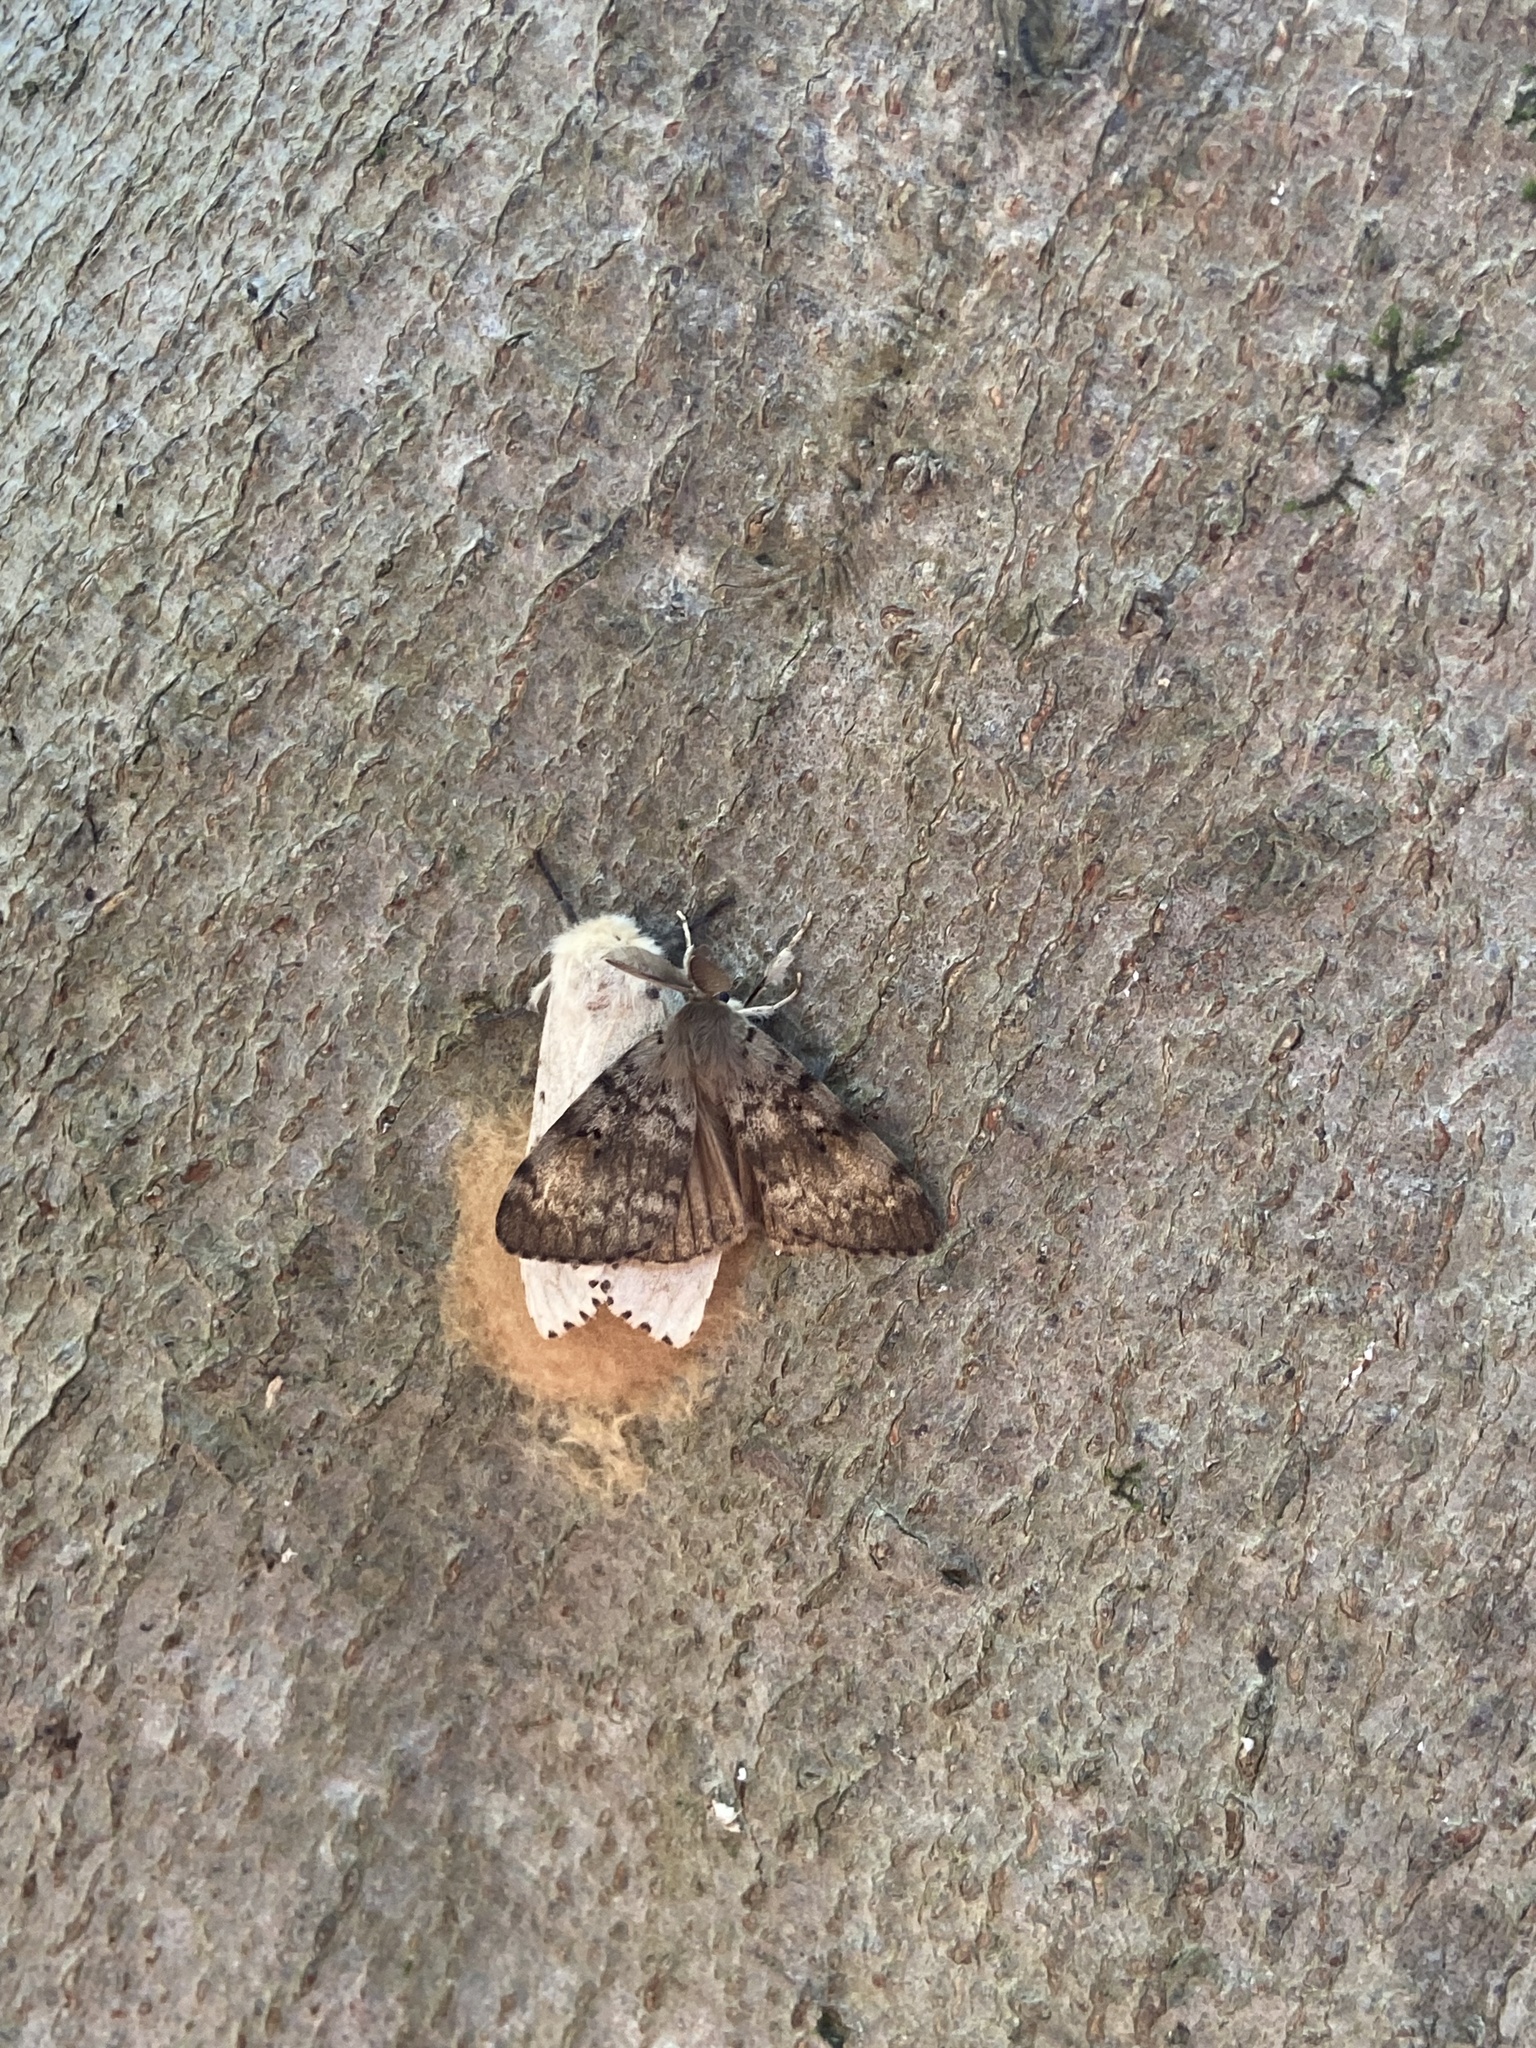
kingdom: Animalia
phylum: Arthropoda
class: Insecta
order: Lepidoptera
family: Erebidae
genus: Lymantria
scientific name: Lymantria dispar
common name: Gypsy moth
